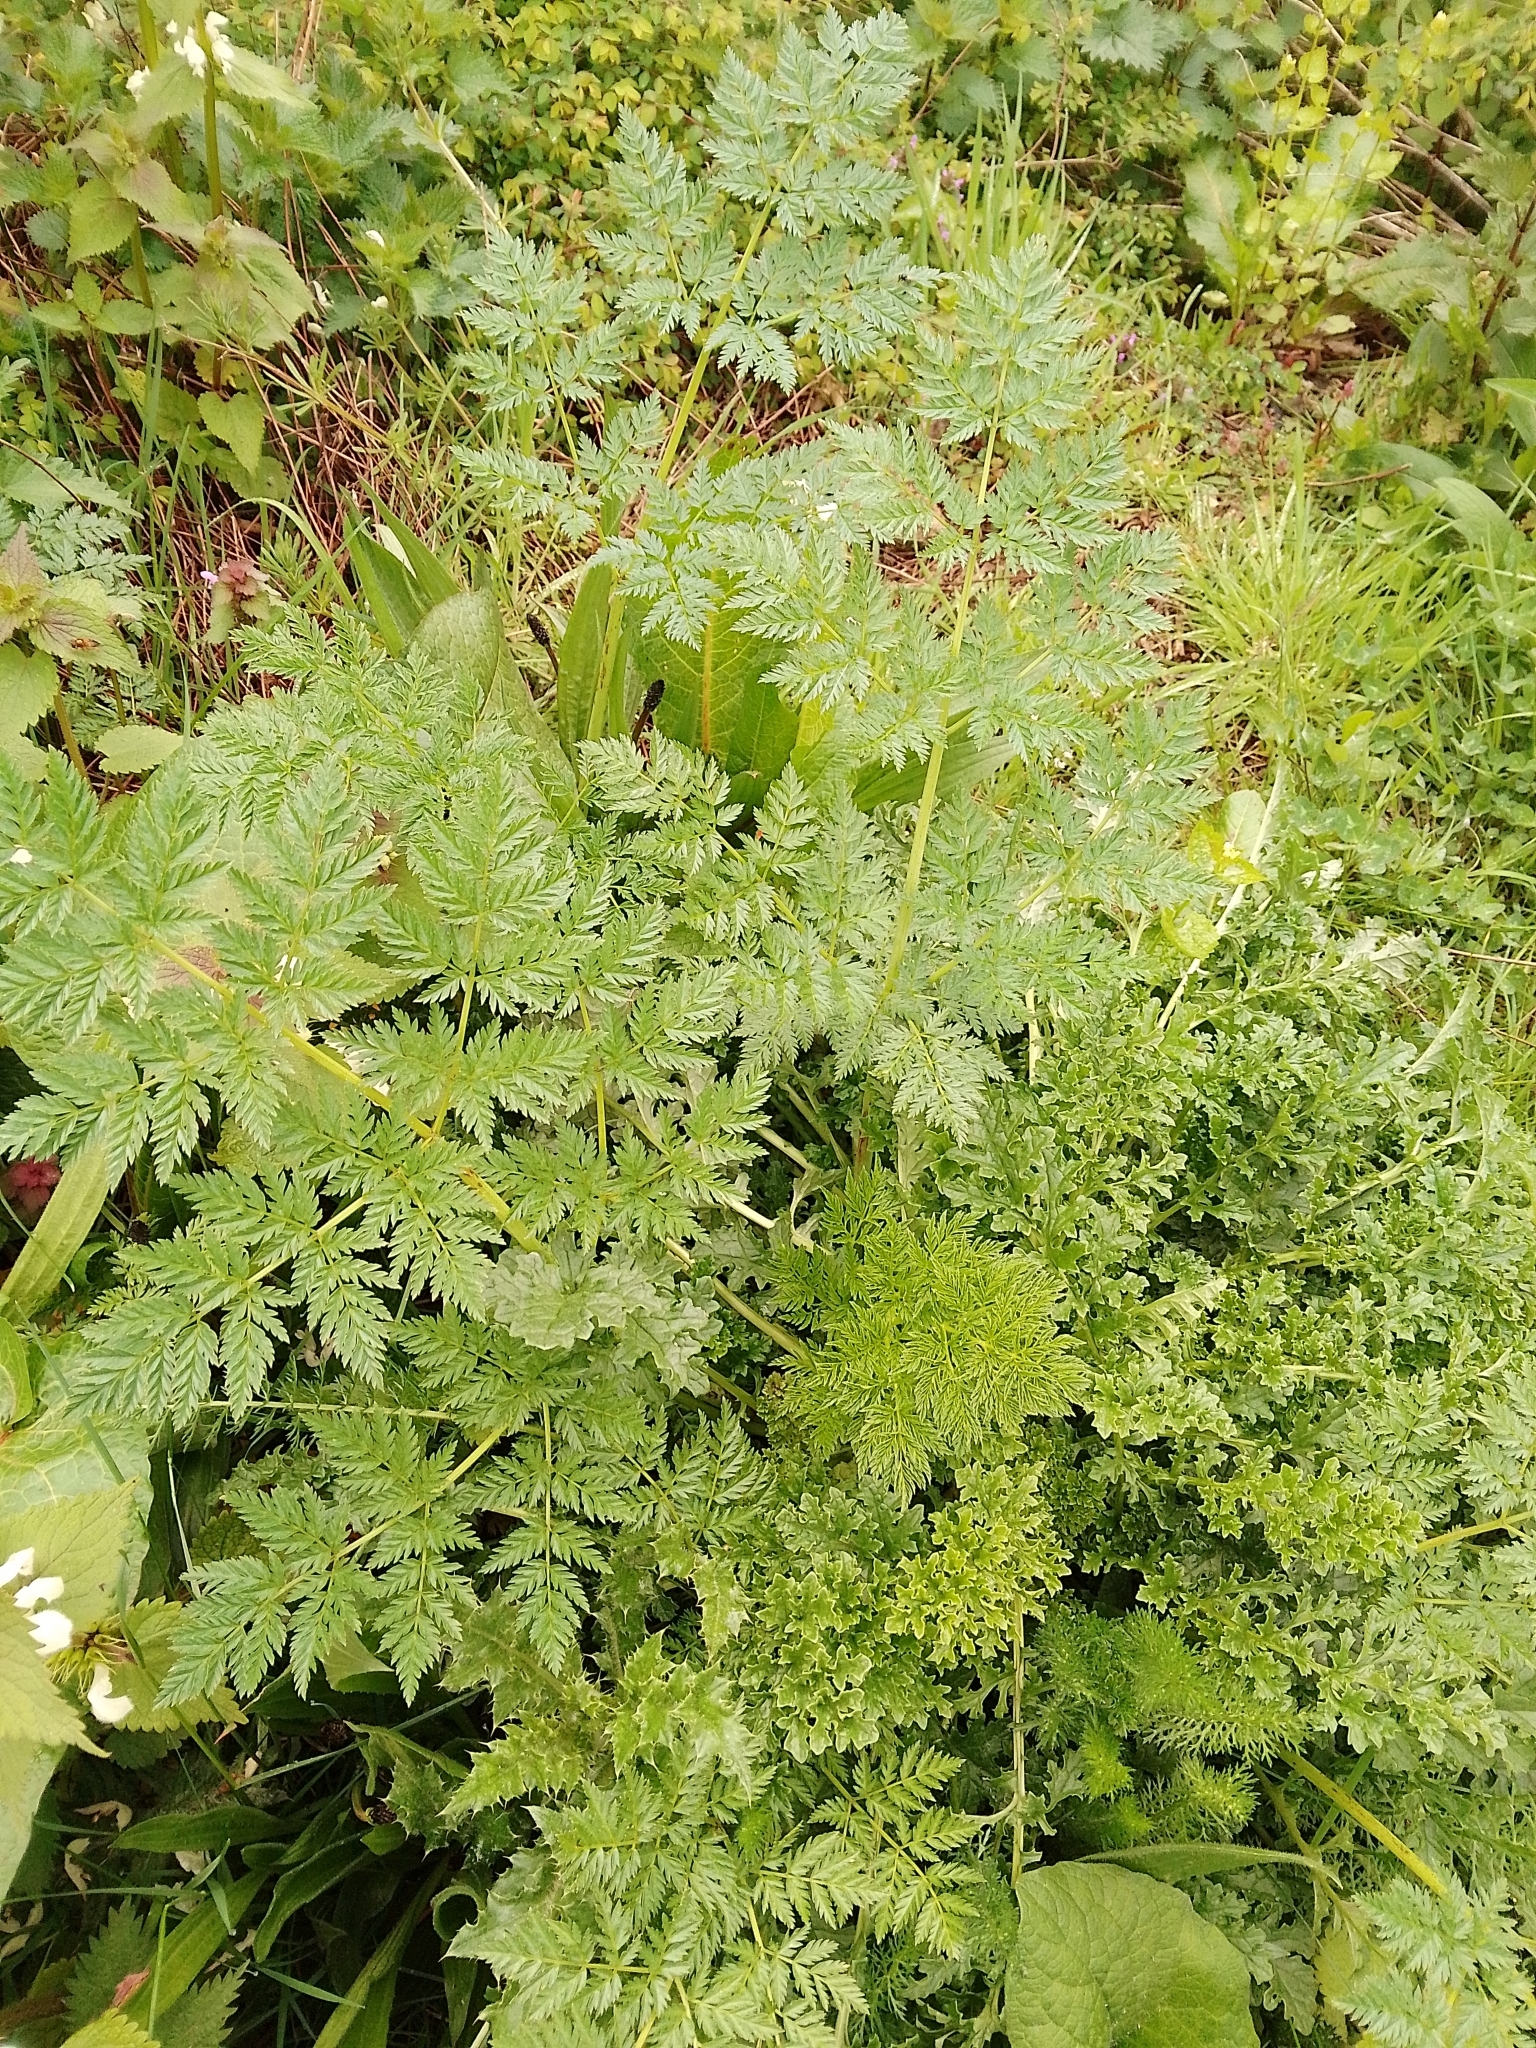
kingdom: Plantae
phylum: Tracheophyta
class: Magnoliopsida
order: Apiales
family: Apiaceae
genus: Conium
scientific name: Conium maculatum
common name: Hemlock
